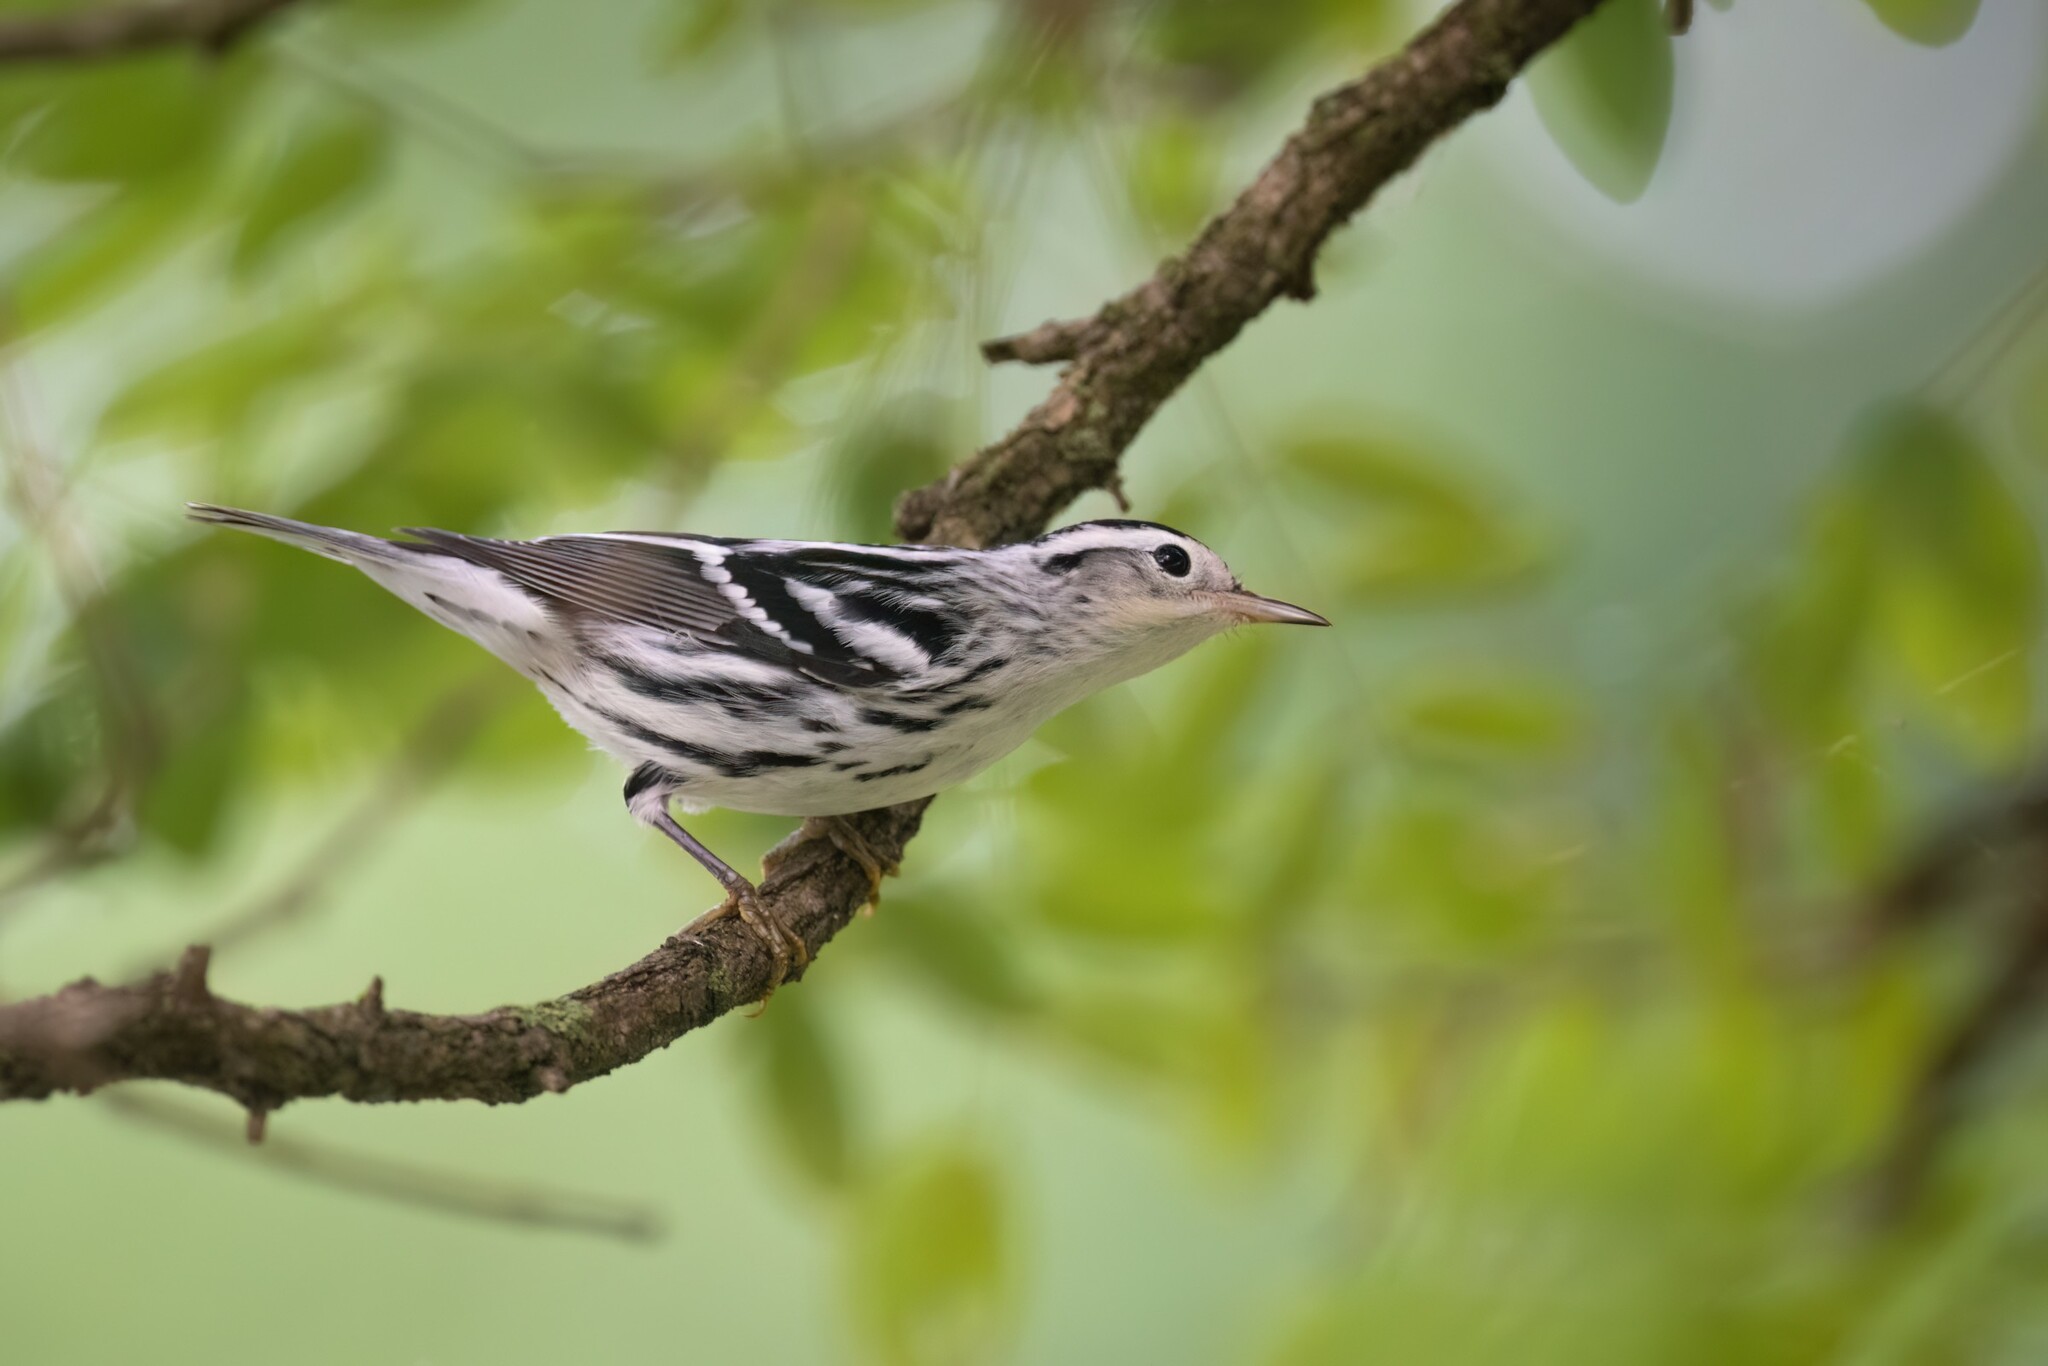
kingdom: Animalia
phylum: Chordata
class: Aves
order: Passeriformes
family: Parulidae
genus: Mniotilta
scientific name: Mniotilta varia
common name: Black-and-white warbler
